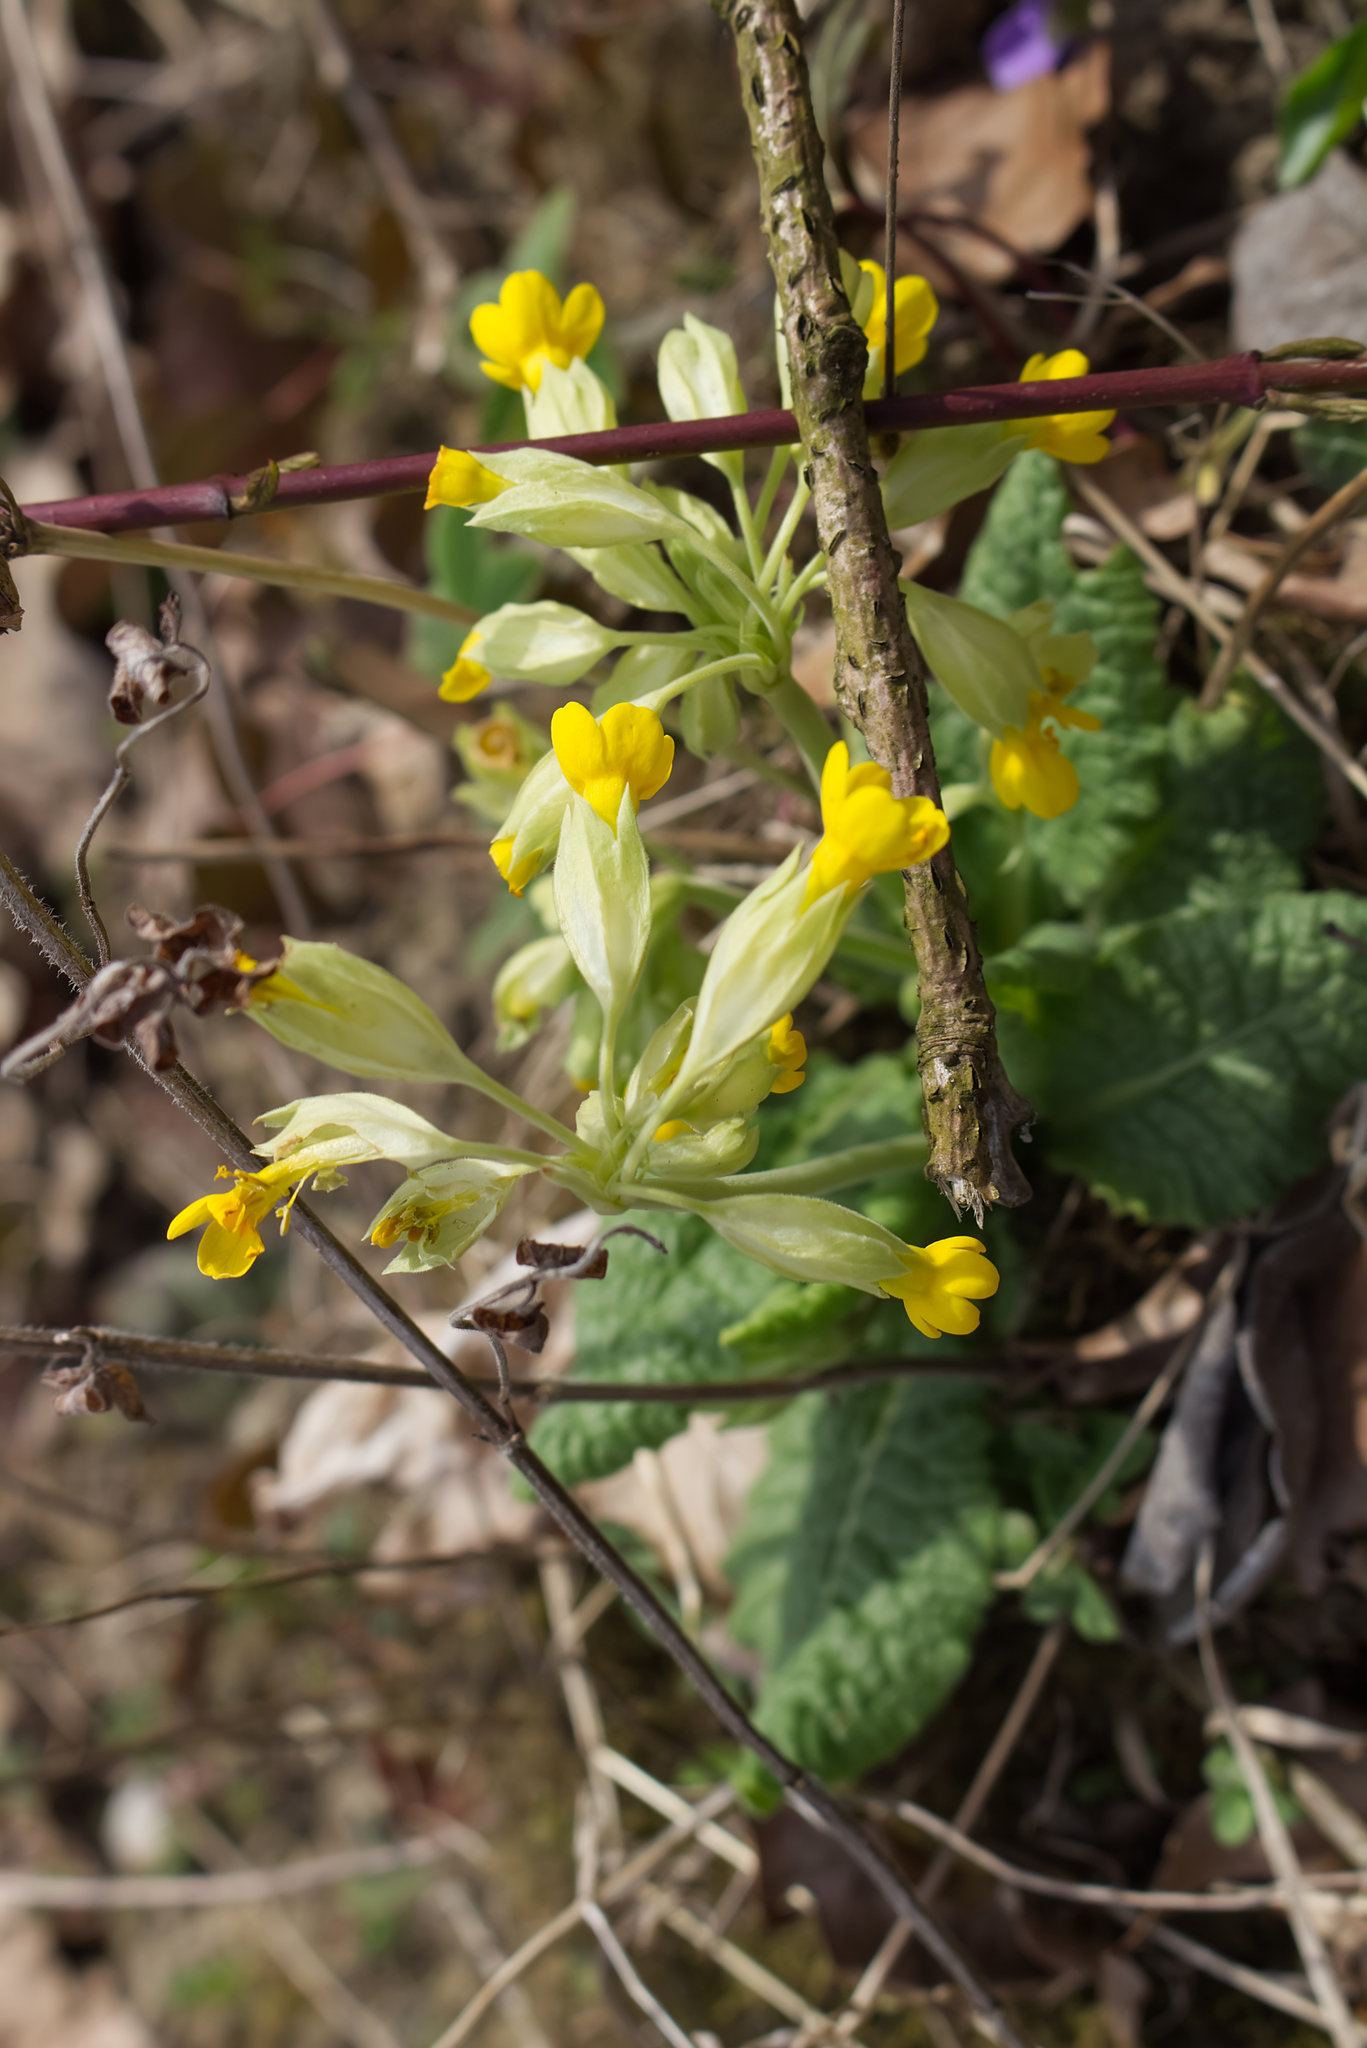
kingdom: Plantae
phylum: Tracheophyta
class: Magnoliopsida
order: Ericales
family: Primulaceae
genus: Primula
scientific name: Primula veris
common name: Cowslip
